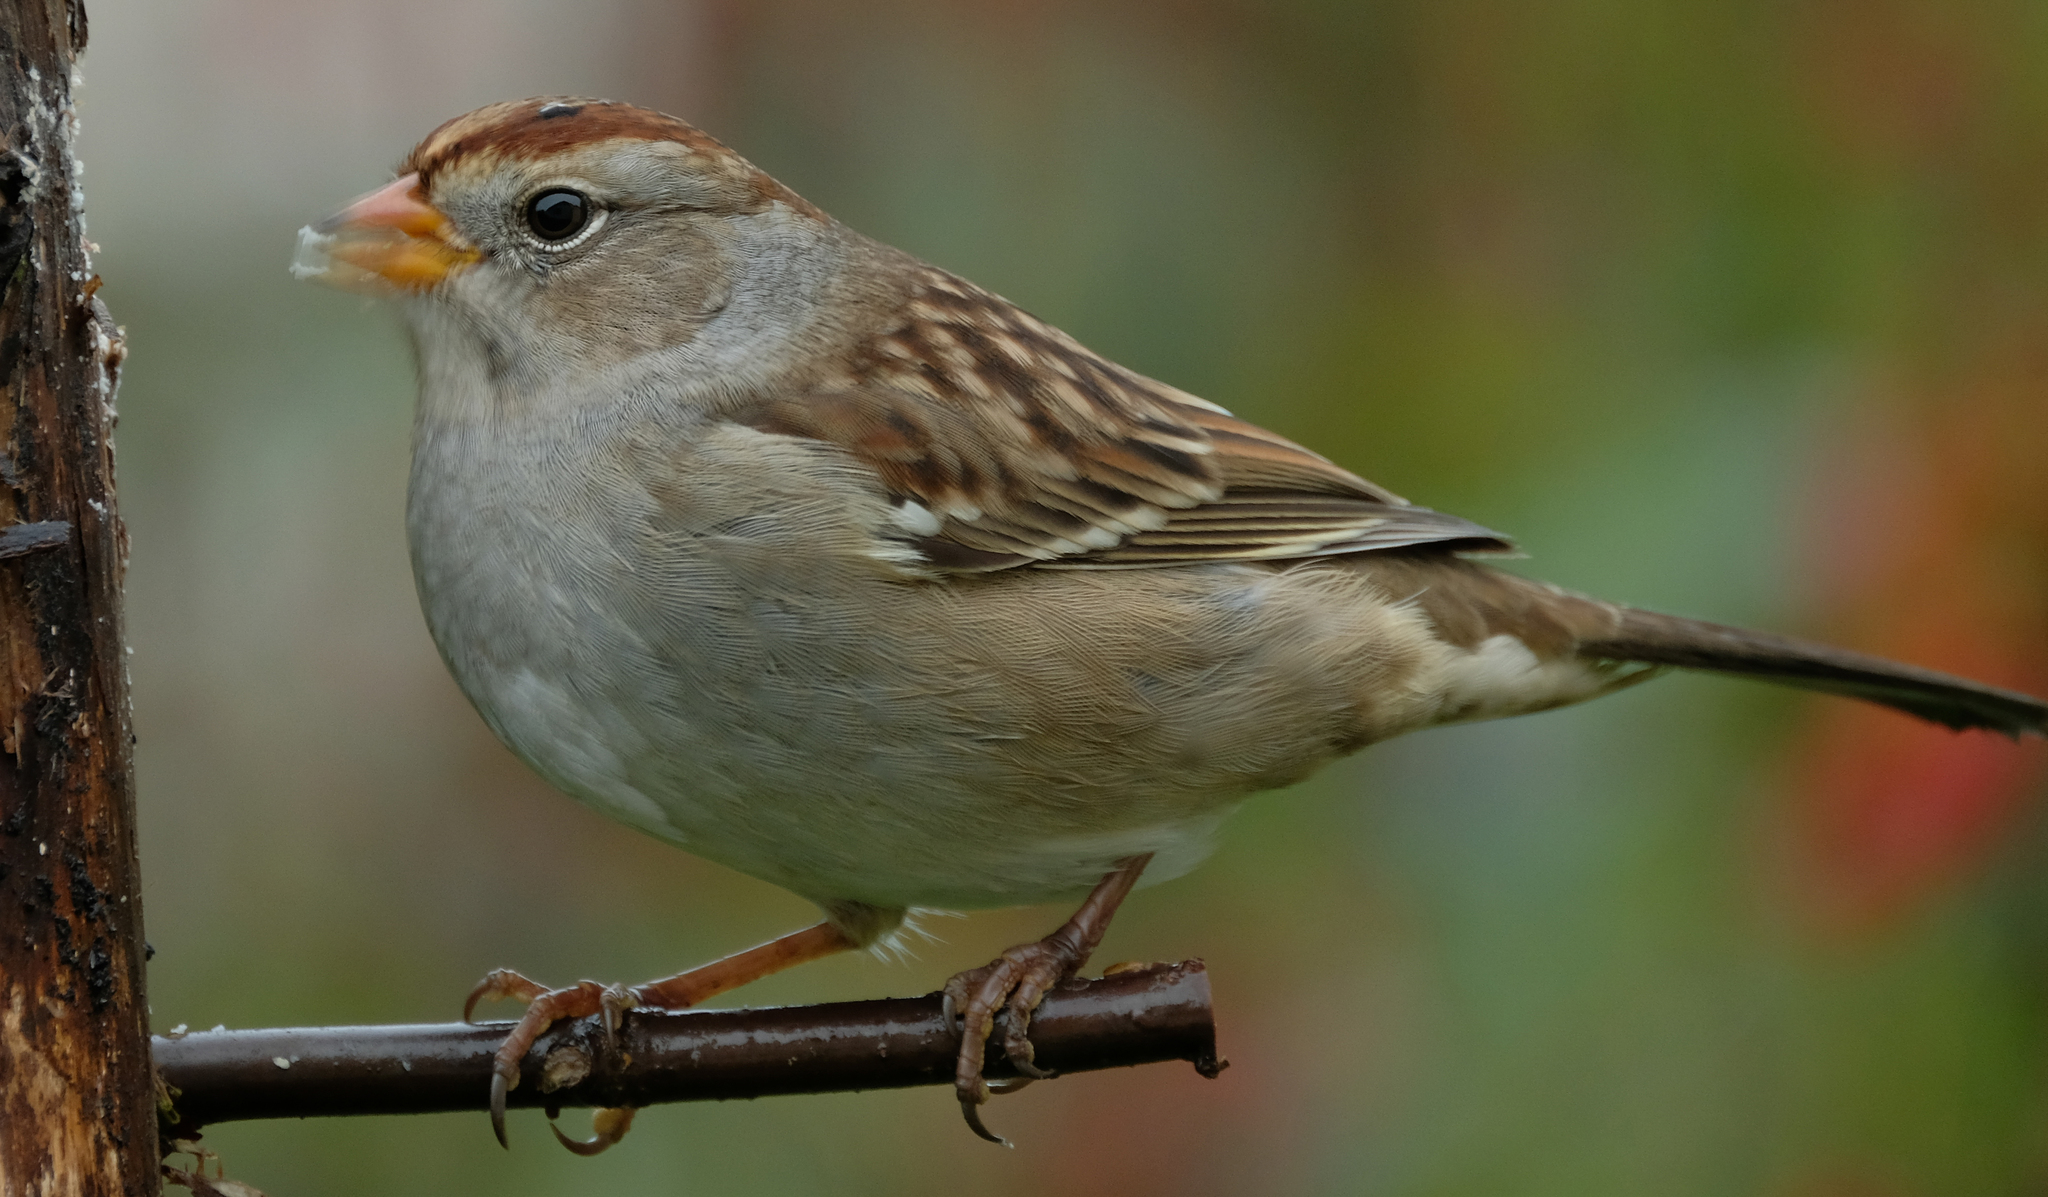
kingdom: Animalia
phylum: Chordata
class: Aves
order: Passeriformes
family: Passerellidae
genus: Zonotrichia
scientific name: Zonotrichia leucophrys
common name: White-crowned sparrow
